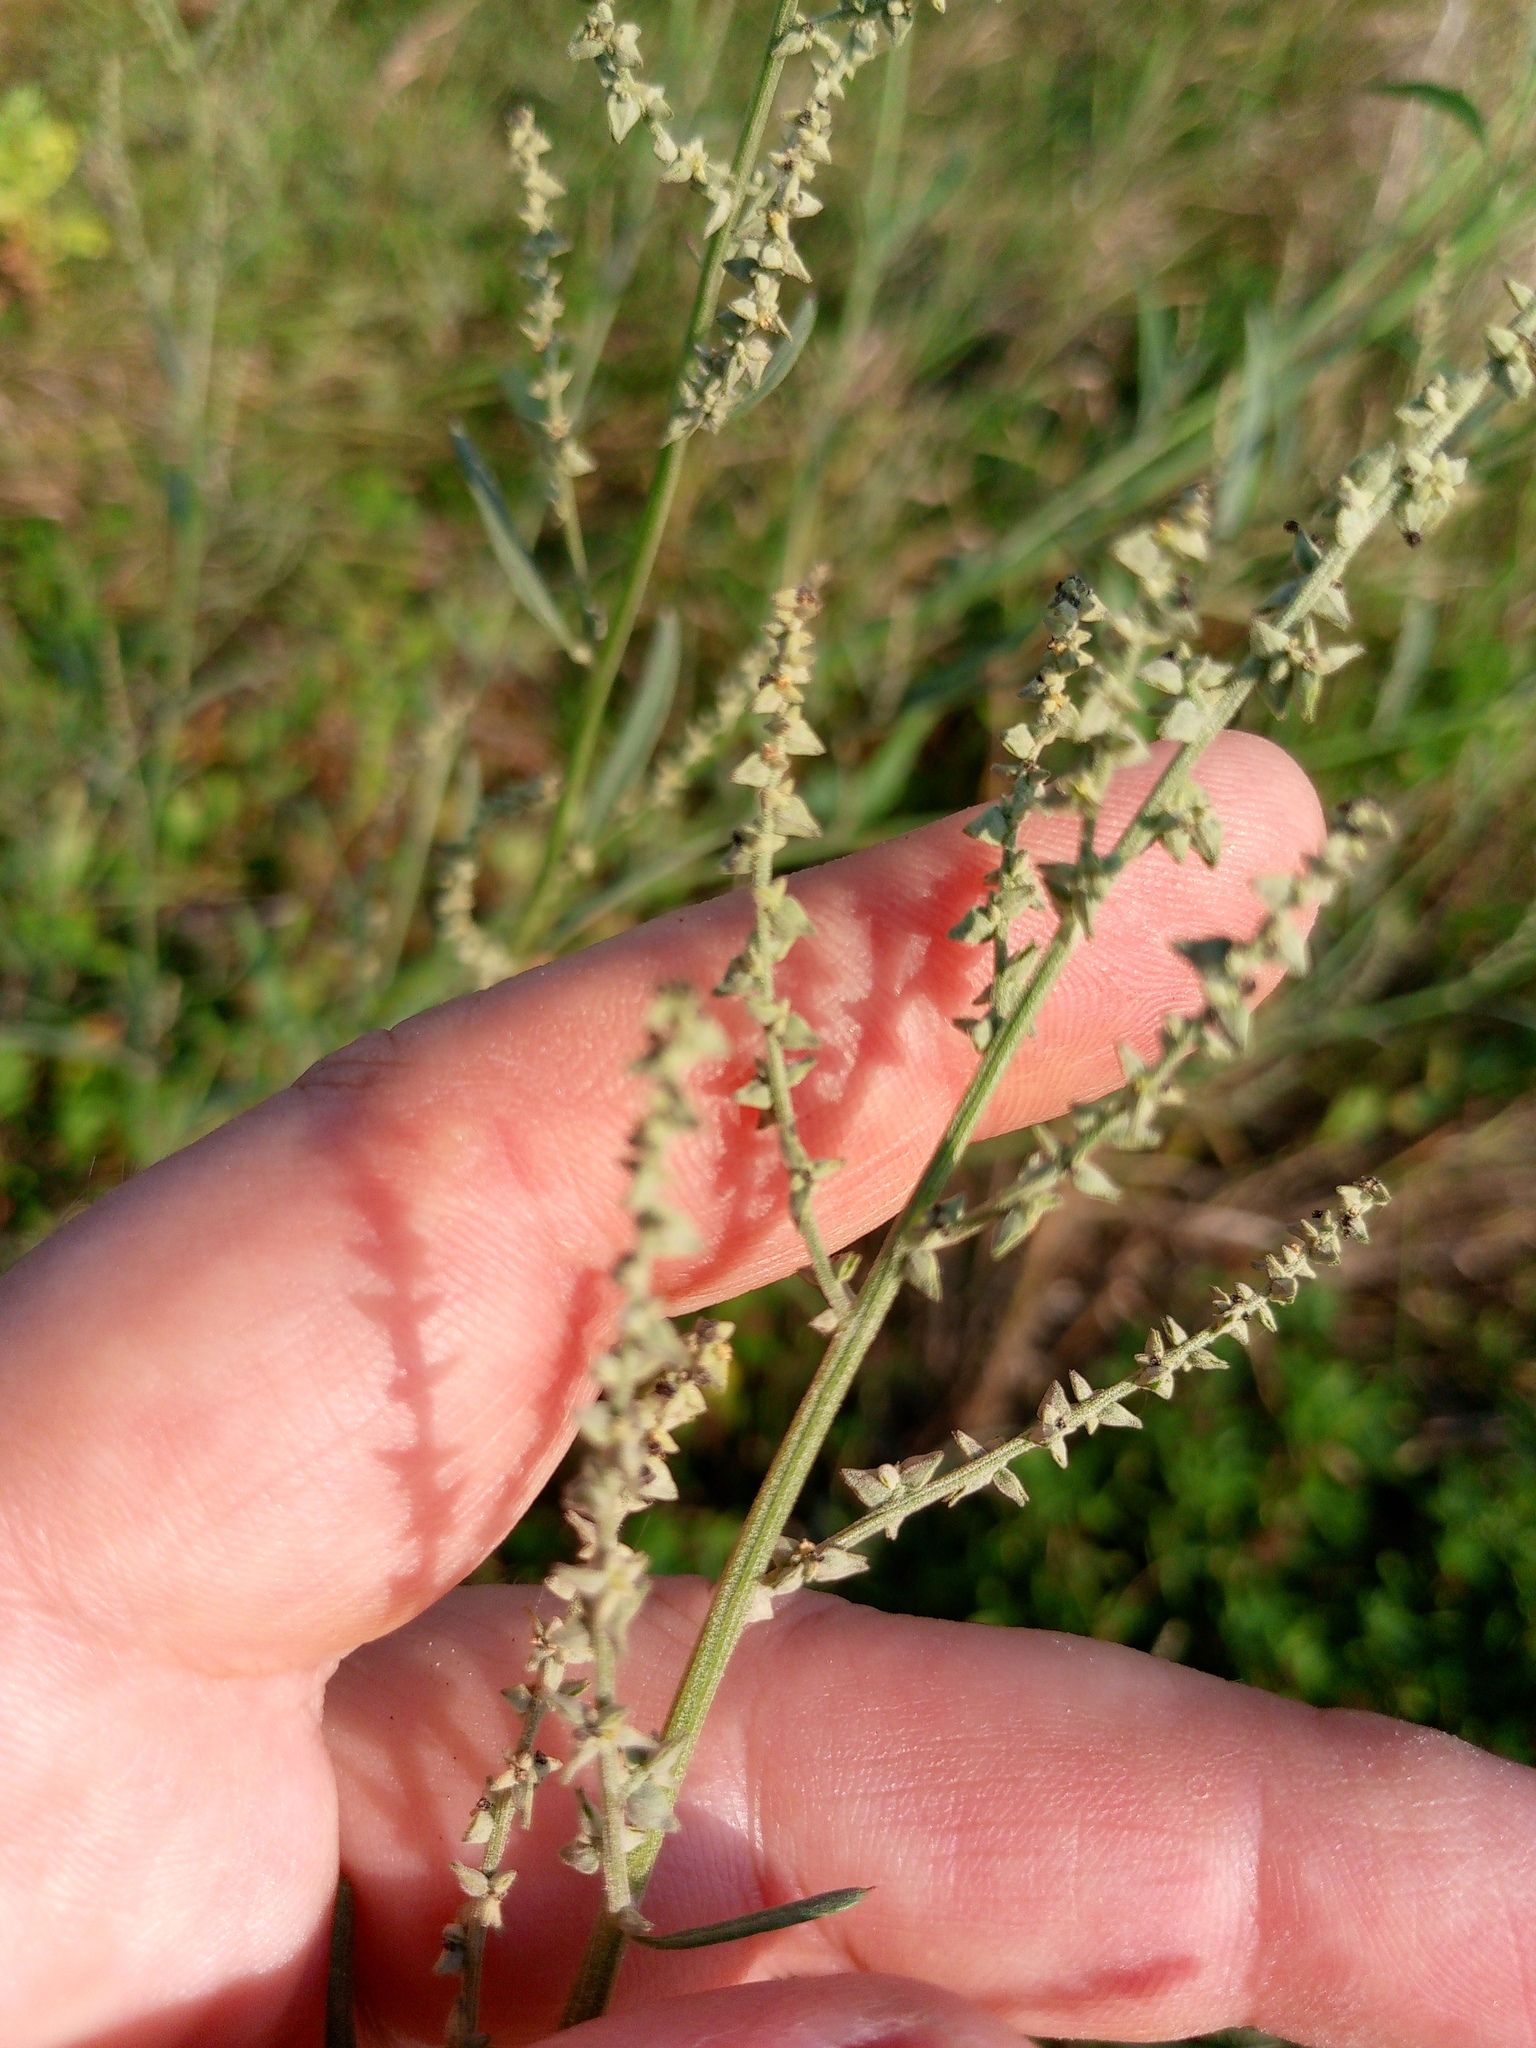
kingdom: Plantae
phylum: Tracheophyta
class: Magnoliopsida
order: Caryophyllales
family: Amaranthaceae
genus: Atriplex
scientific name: Atriplex oblongifolia
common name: Oblongleaf orache
